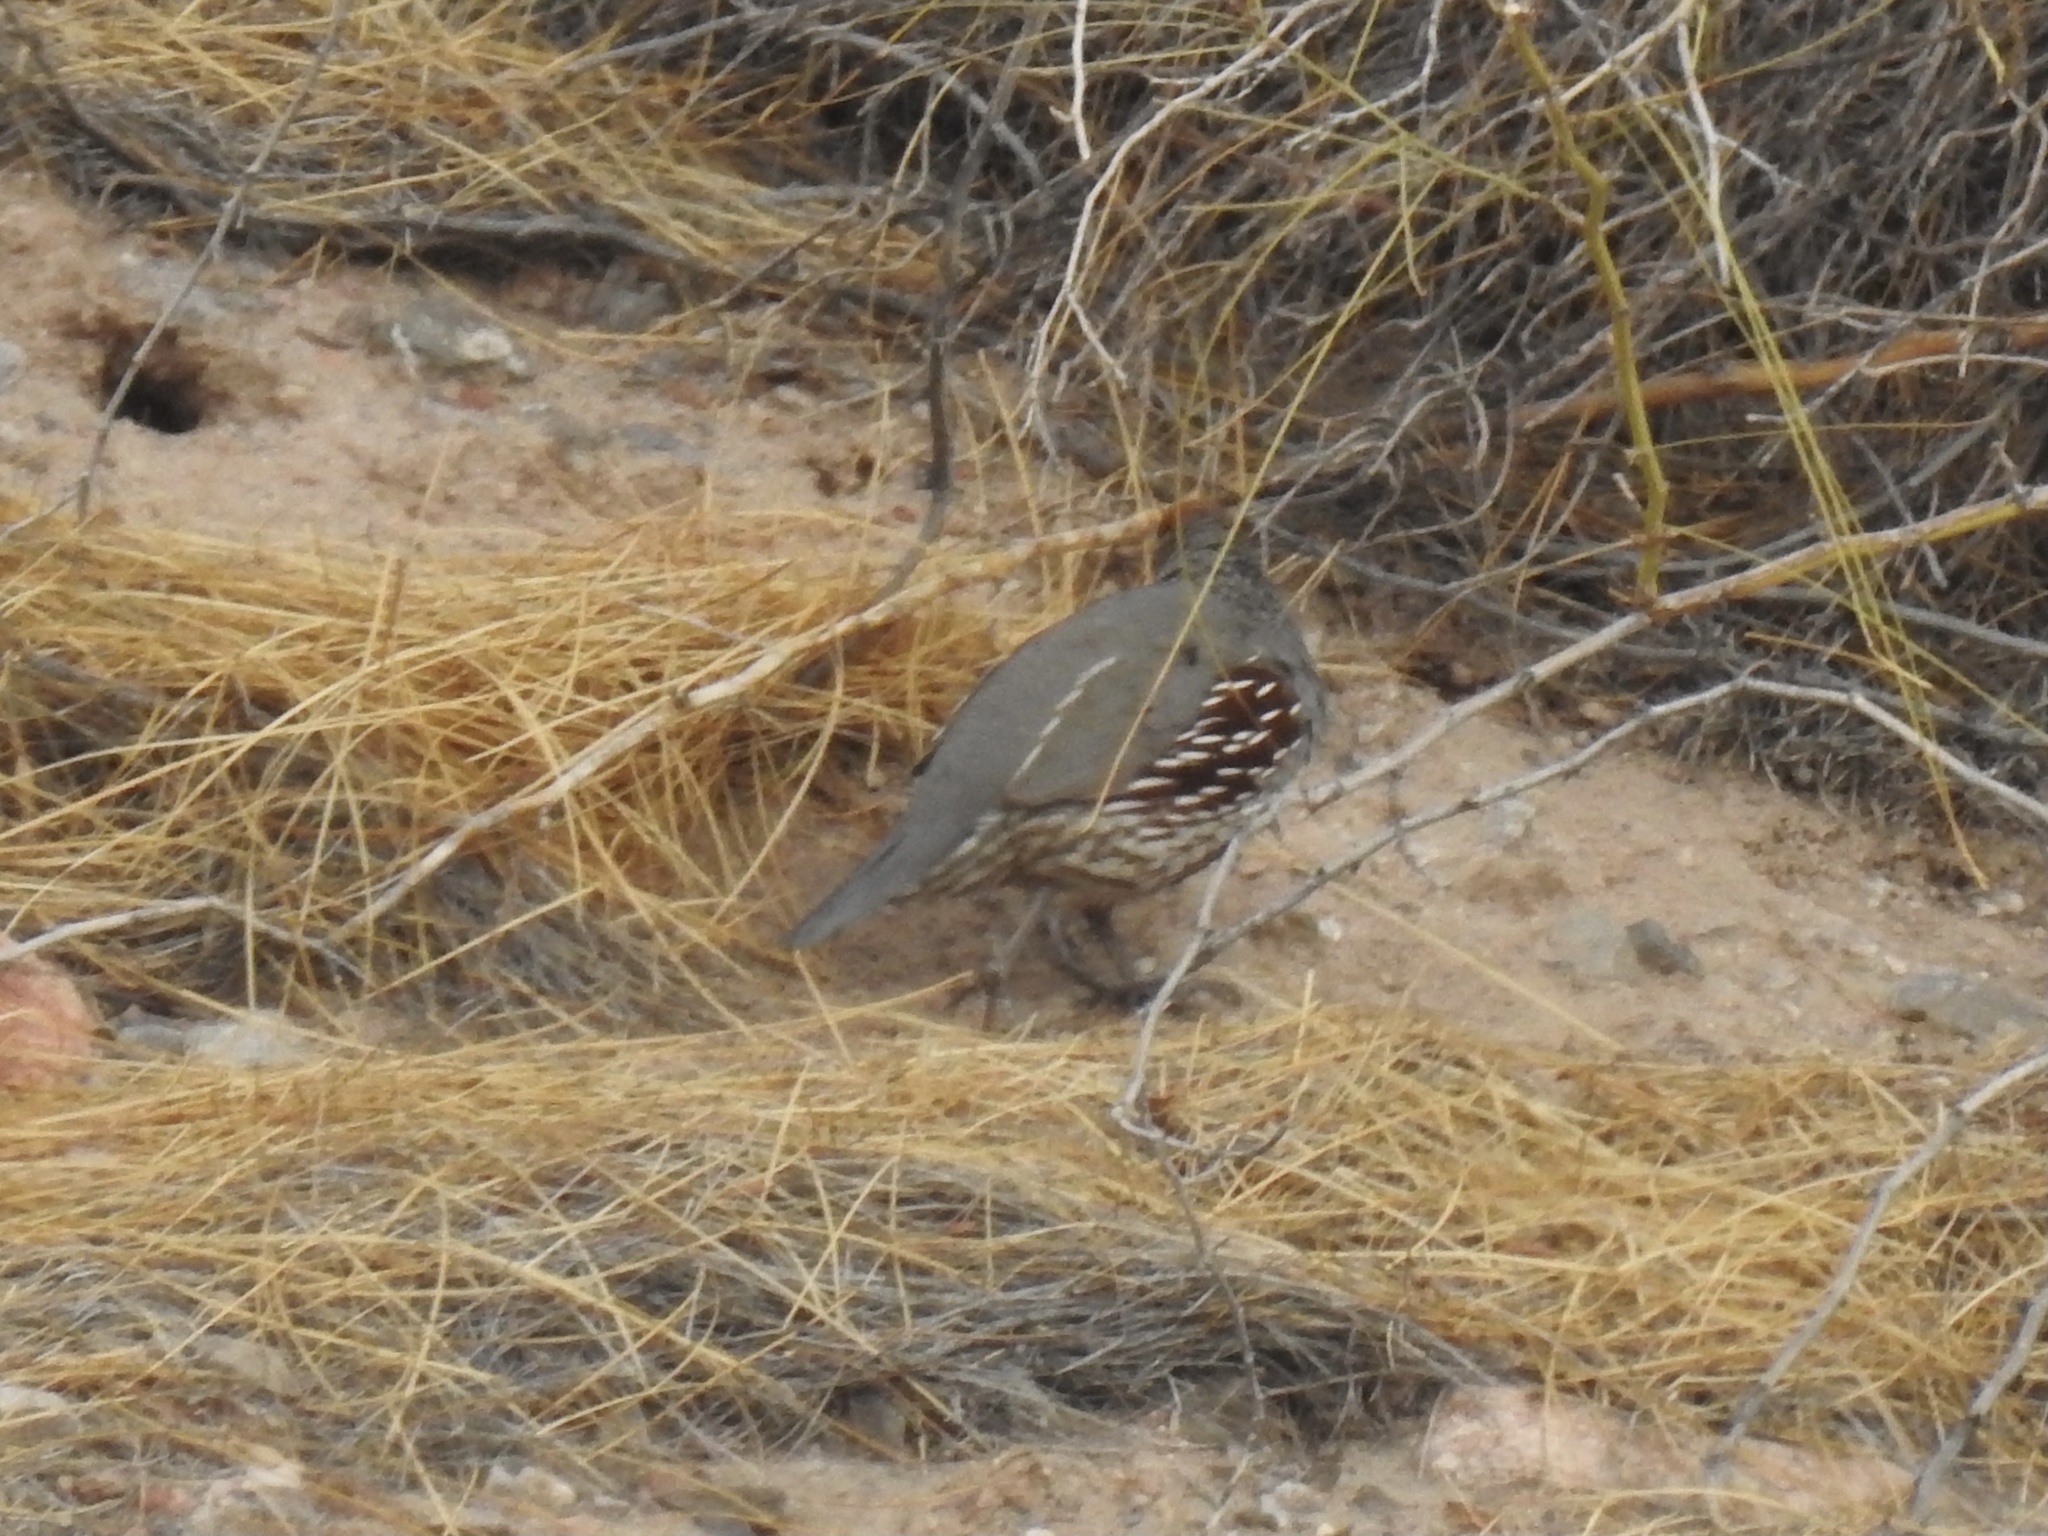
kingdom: Animalia
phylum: Chordata
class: Aves
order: Galliformes
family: Odontophoridae
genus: Callipepla
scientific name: Callipepla gambelii
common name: Gambel's quail
